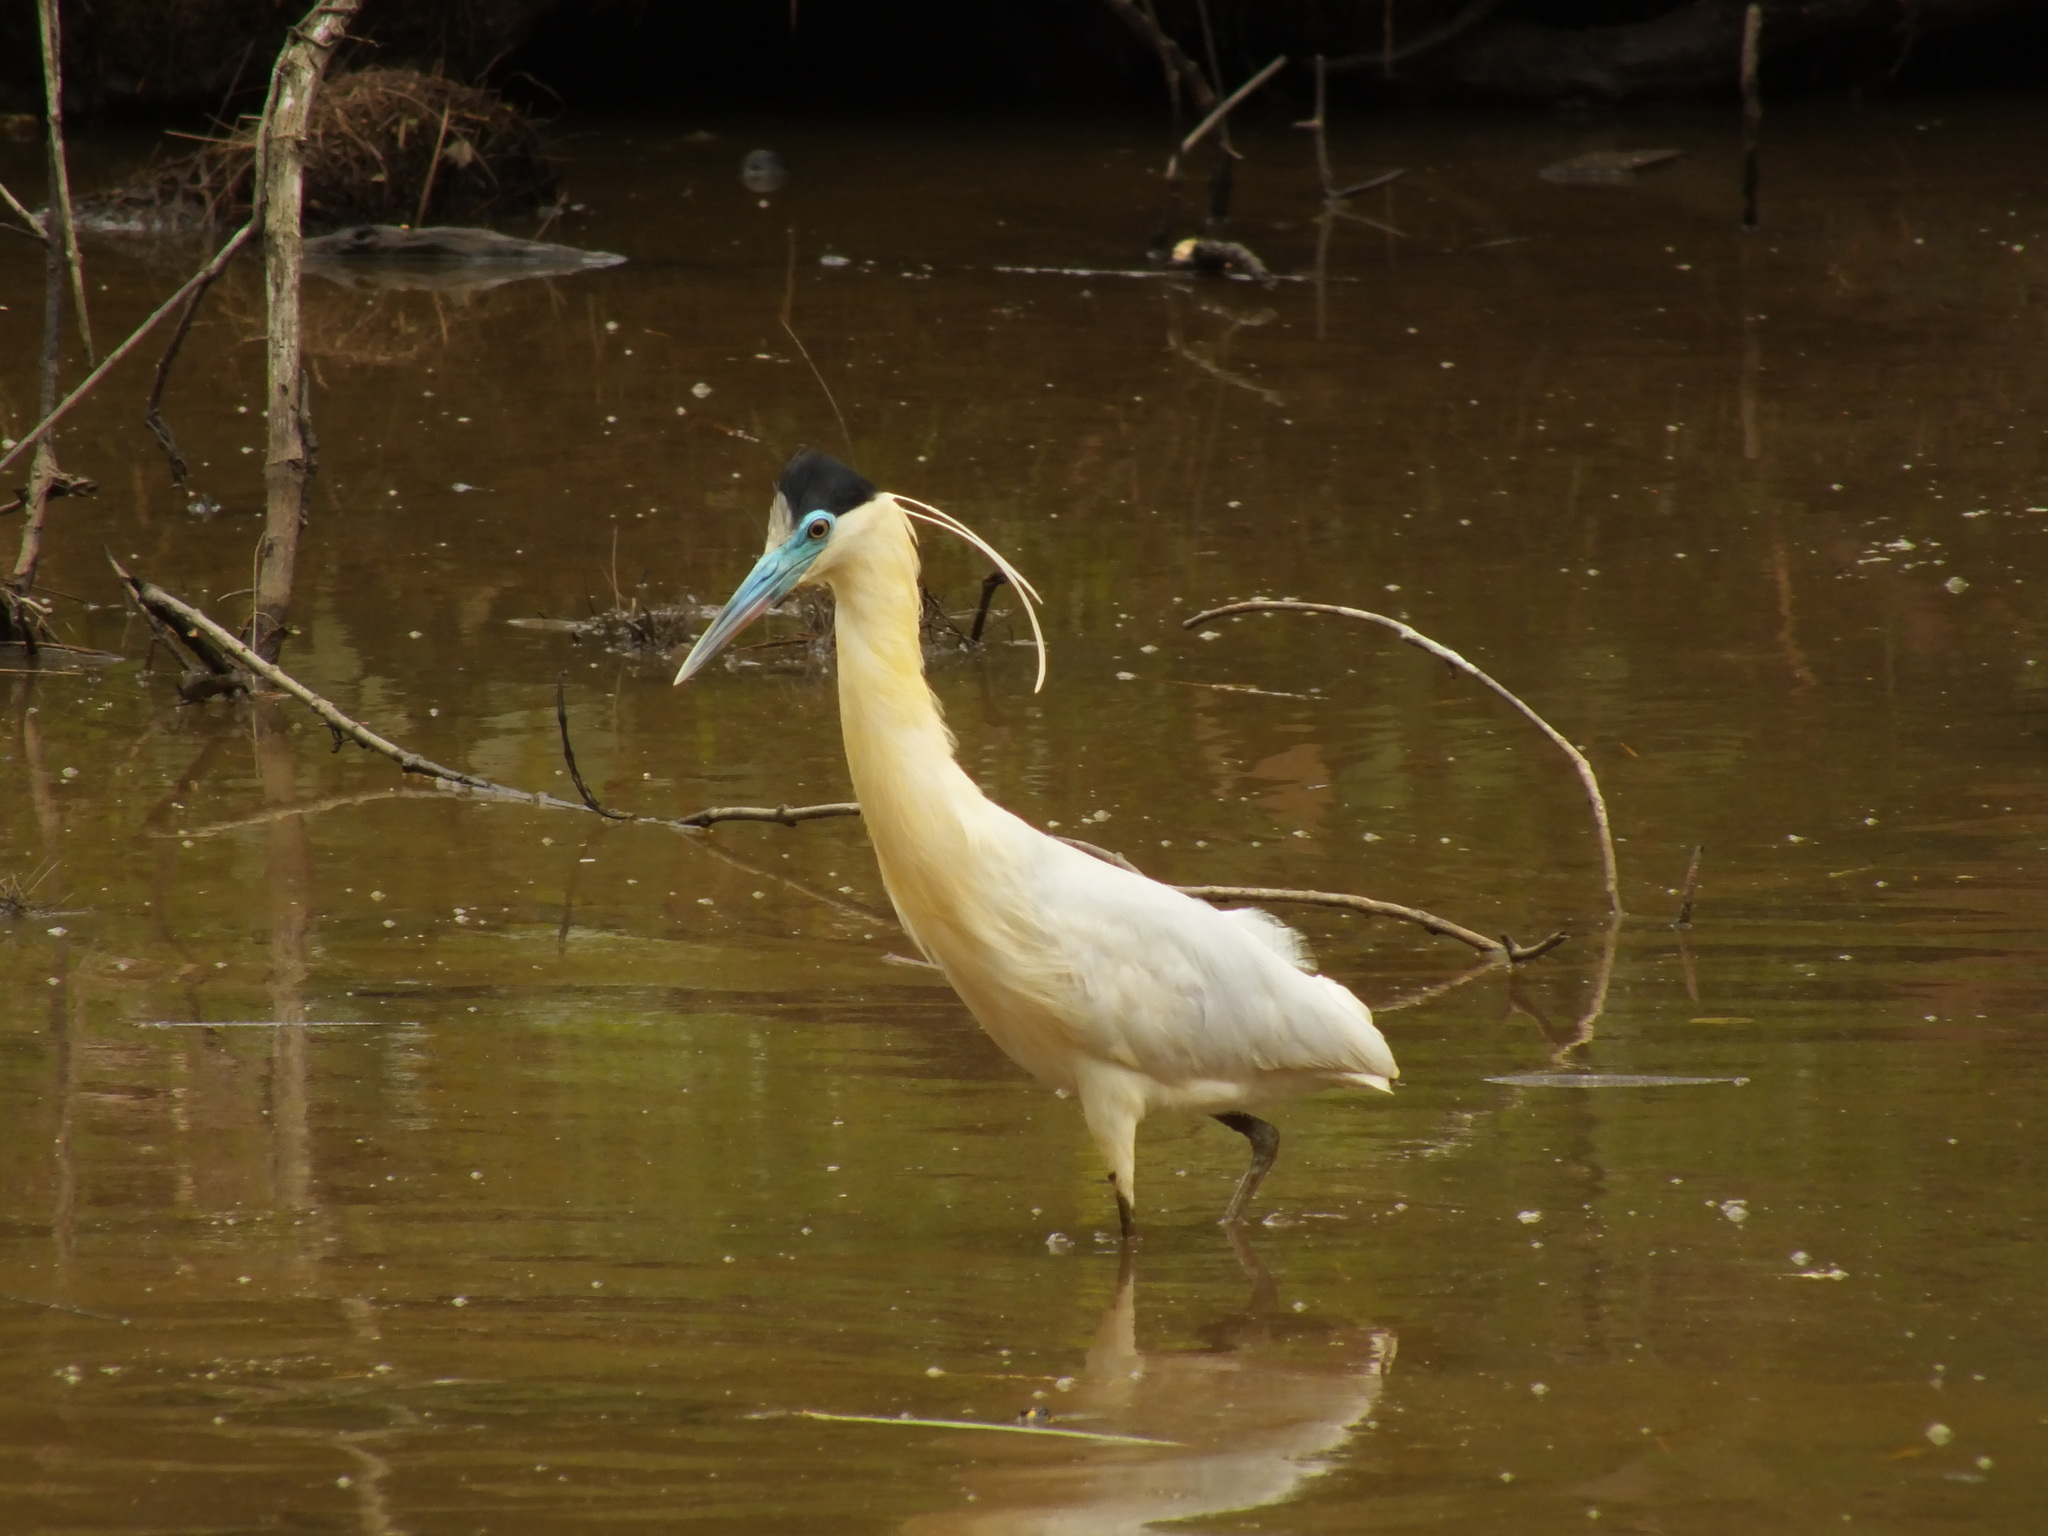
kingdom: Animalia
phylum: Chordata
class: Aves
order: Pelecaniformes
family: Ardeidae
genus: Pilherodius
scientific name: Pilherodius pileatus
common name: Capped heron
